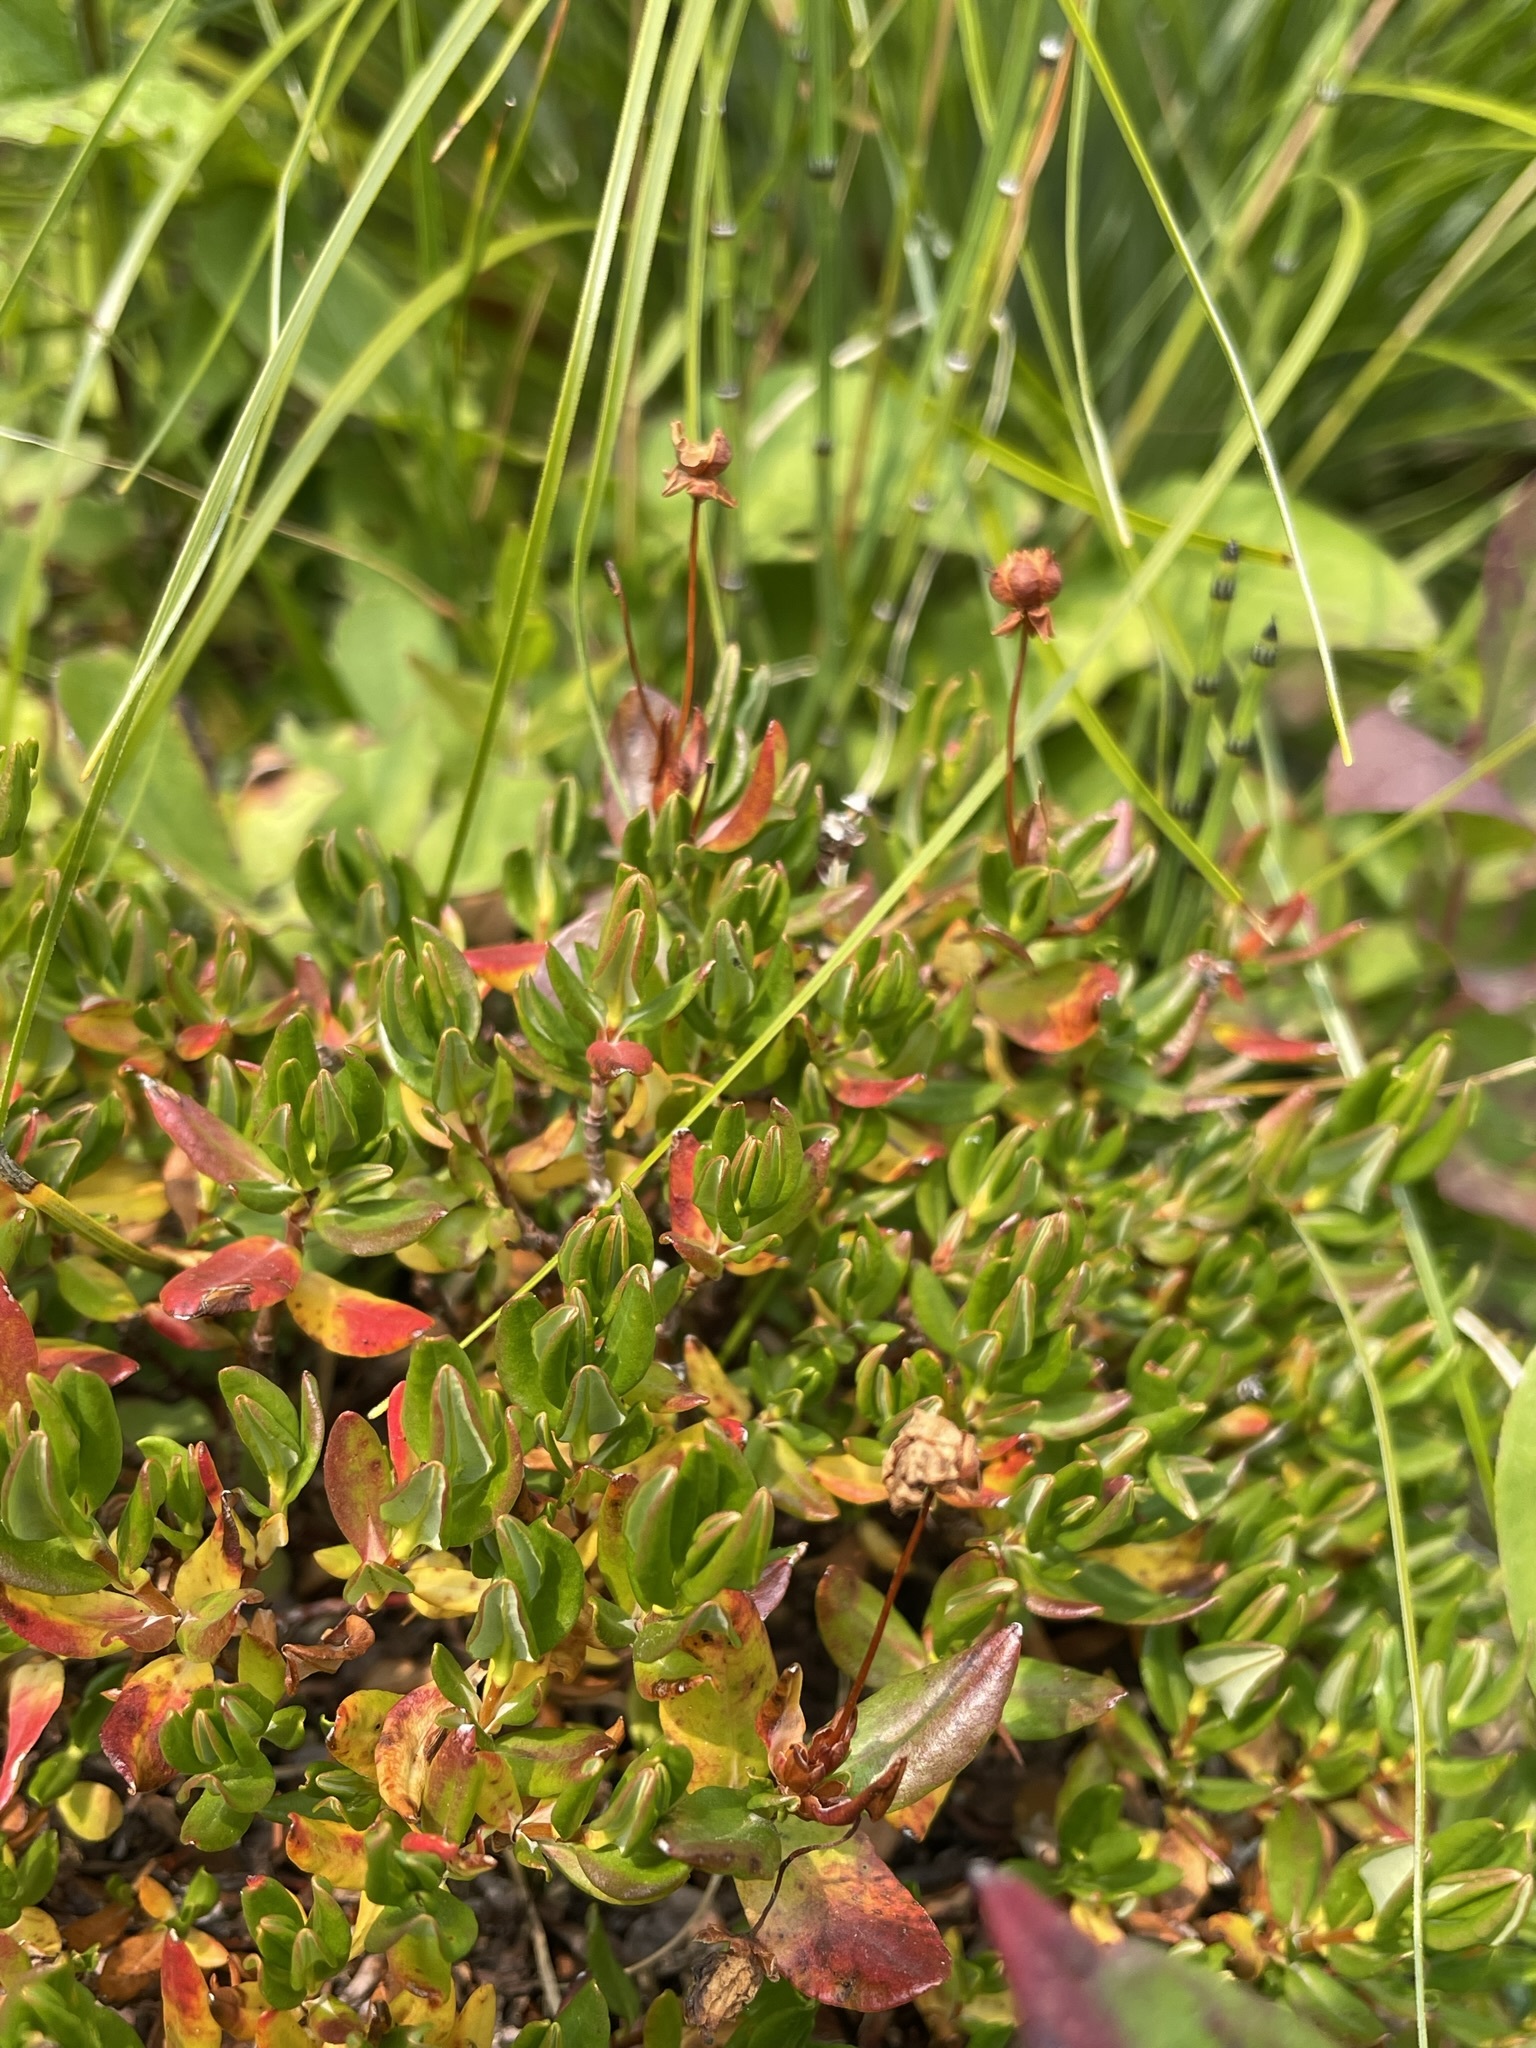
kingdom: Plantae
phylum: Tracheophyta
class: Magnoliopsida
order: Ericales
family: Ericaceae
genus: Kalmia
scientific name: Kalmia microphylla
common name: Alpine bog laurel
